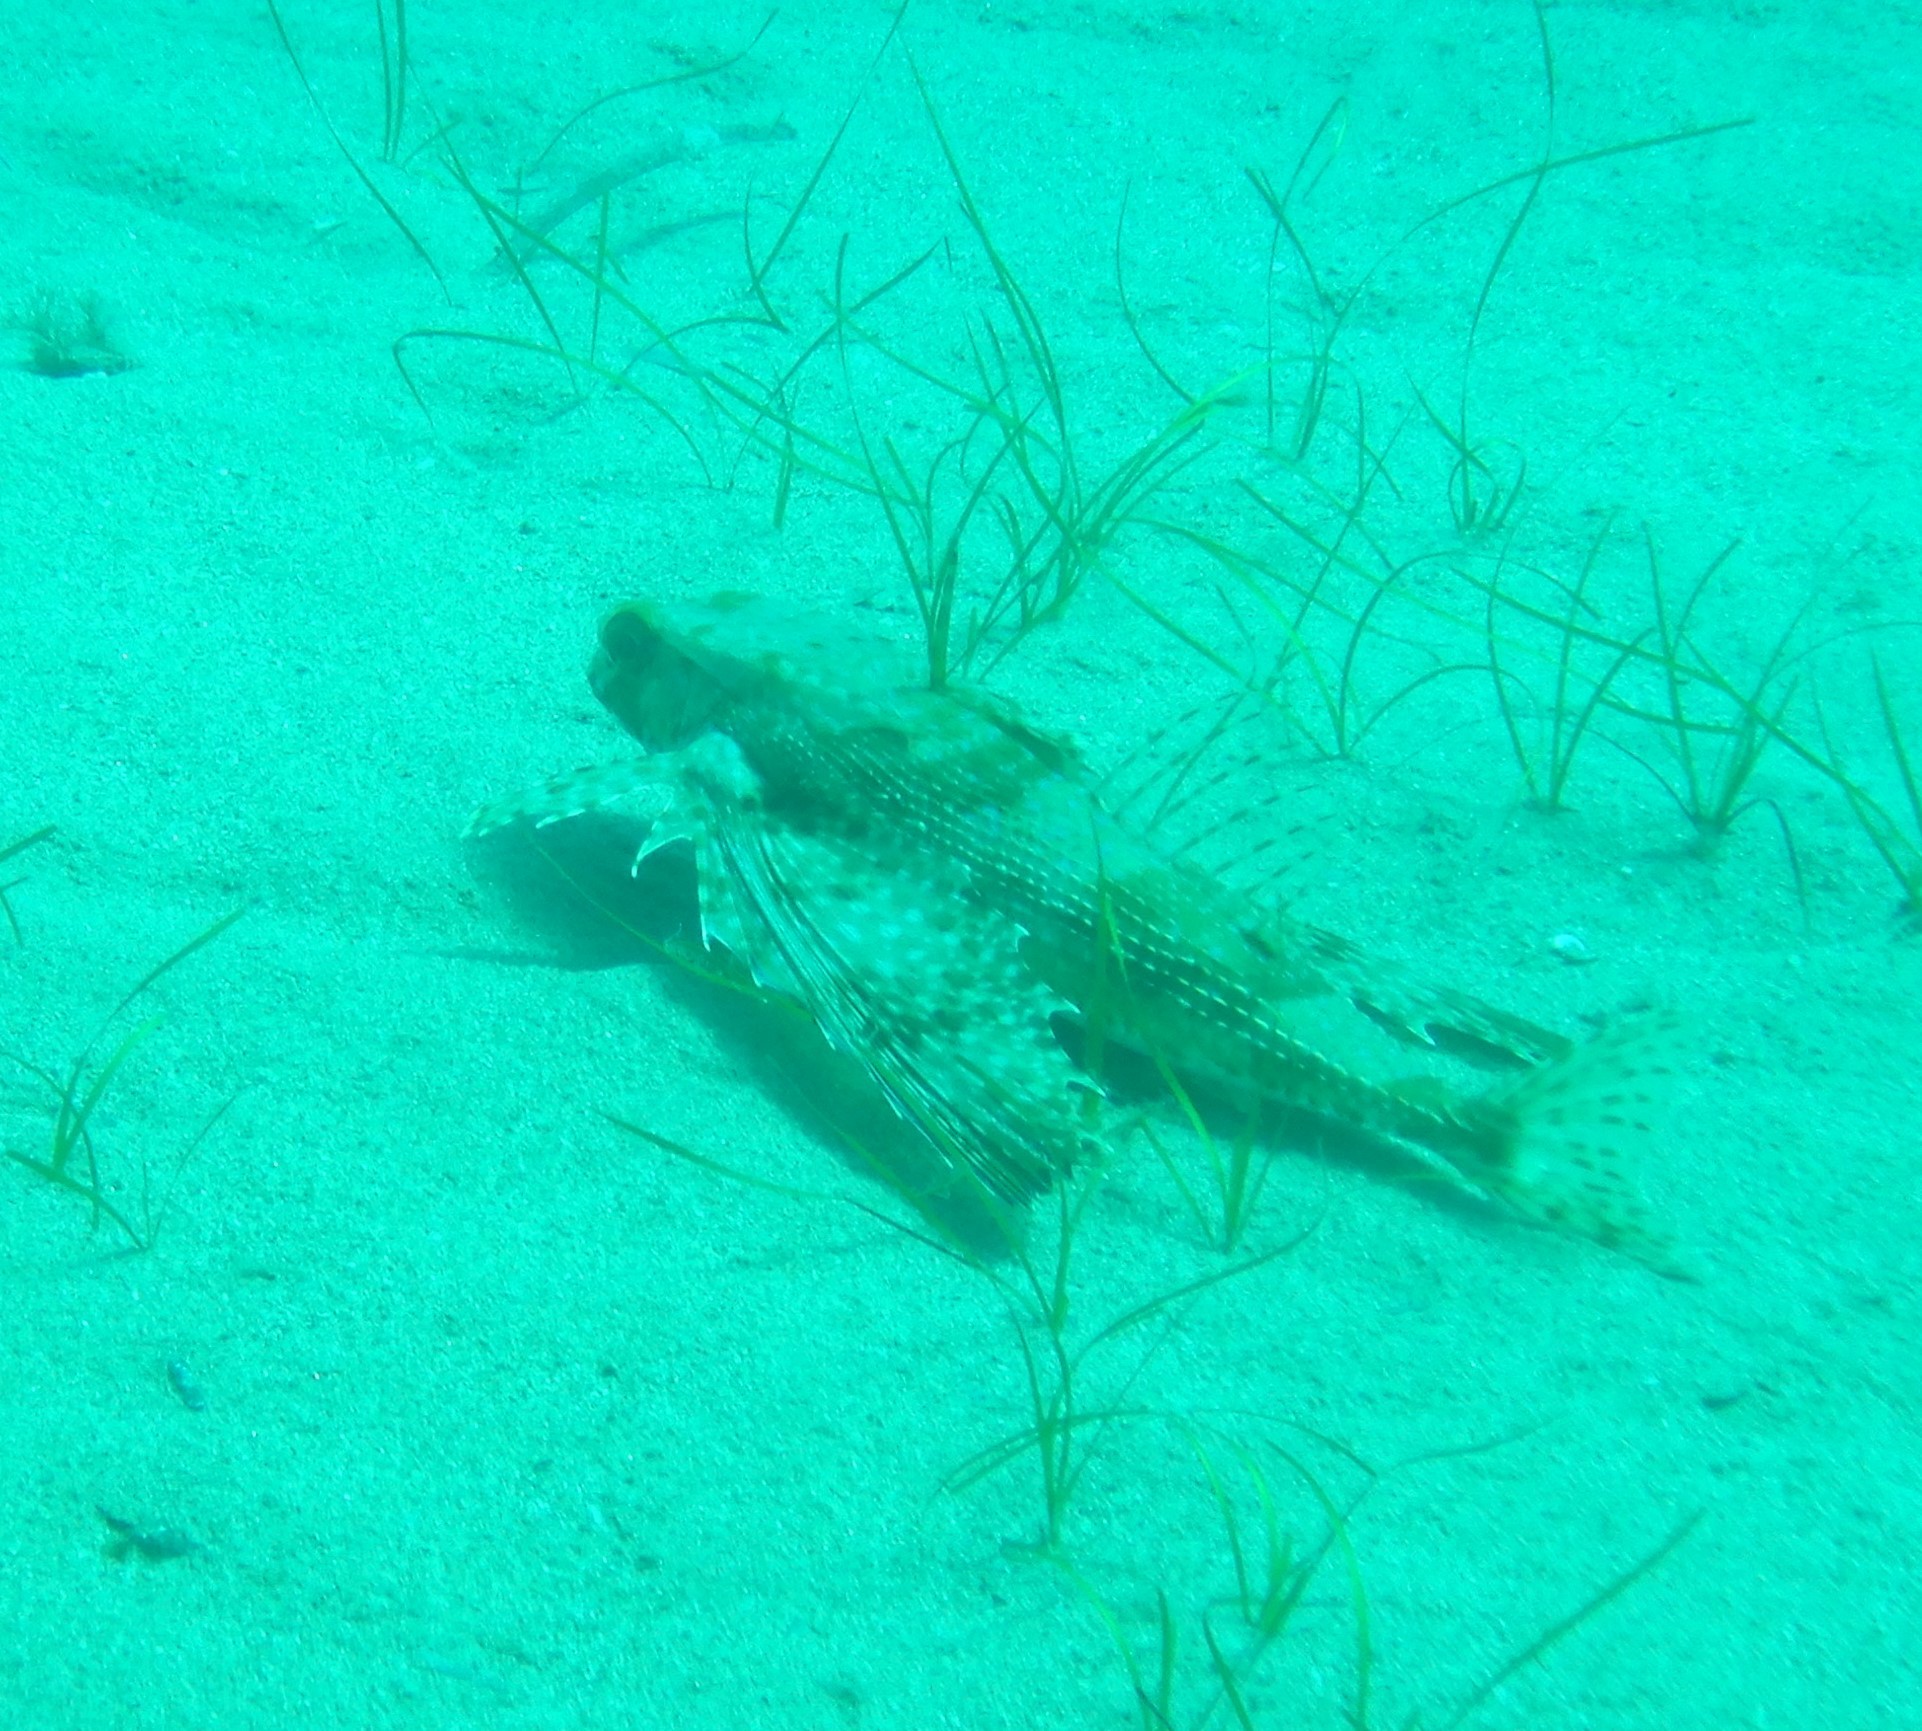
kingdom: Animalia
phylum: Chordata
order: Scorpaeniformes
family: Dactylopteridae
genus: Dactylopterus
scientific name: Dactylopterus volitans
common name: Flying gurnard
